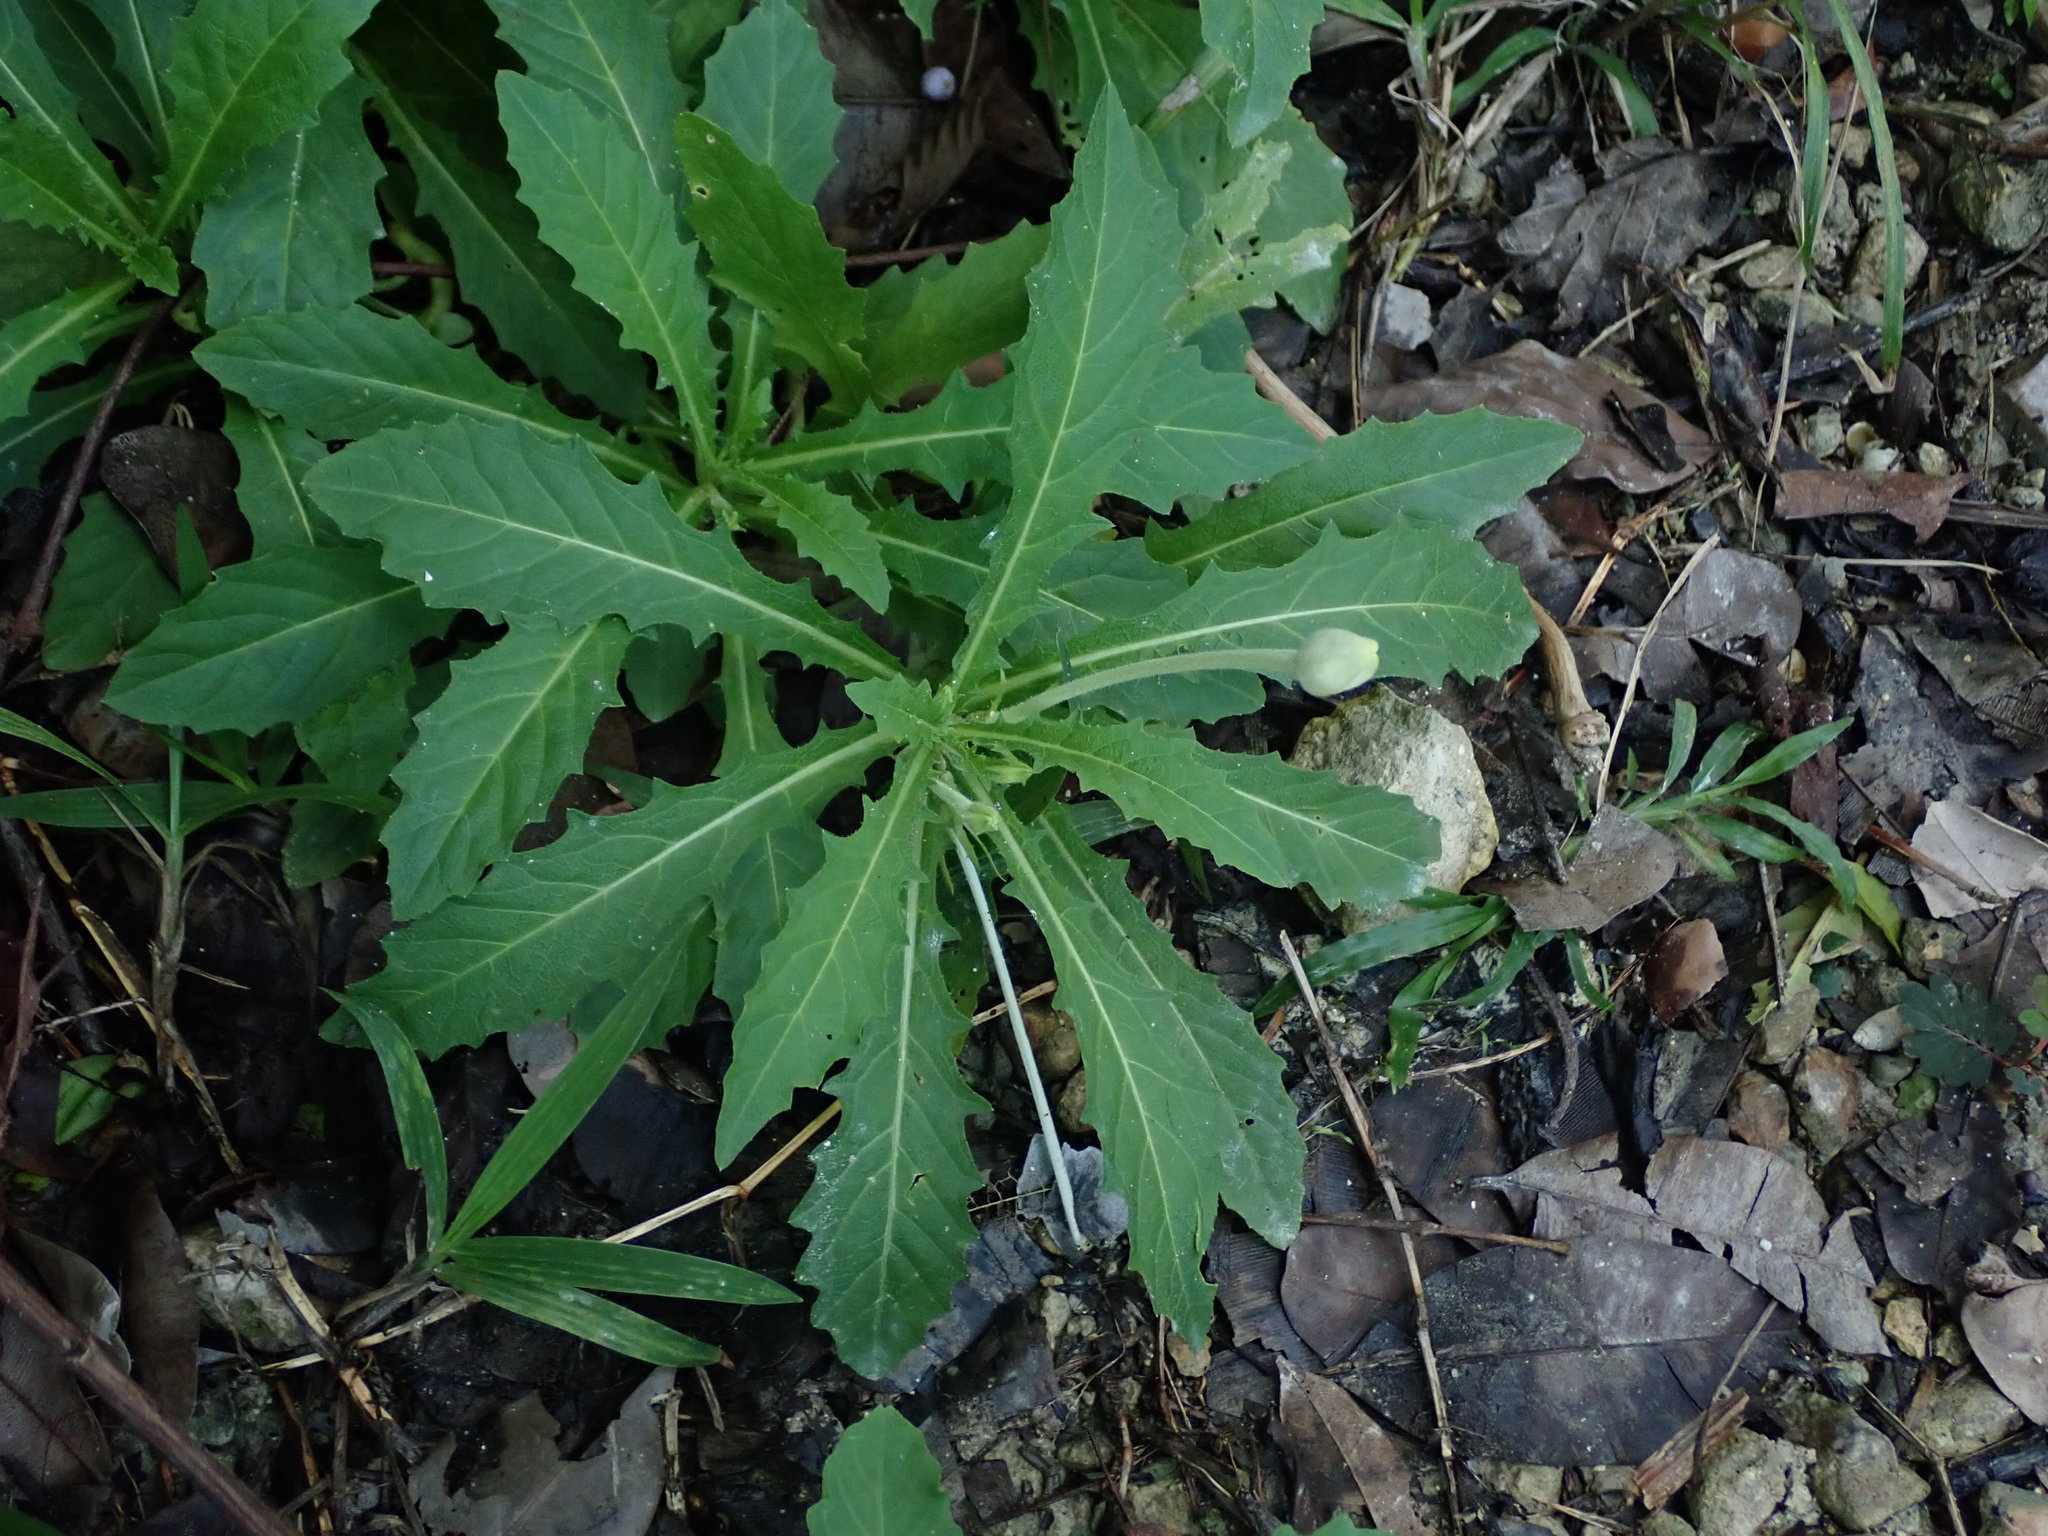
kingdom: Plantae
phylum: Tracheophyta
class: Magnoliopsida
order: Asterales
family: Campanulaceae
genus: Hippobroma
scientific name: Hippobroma longiflora
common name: Madamfate
